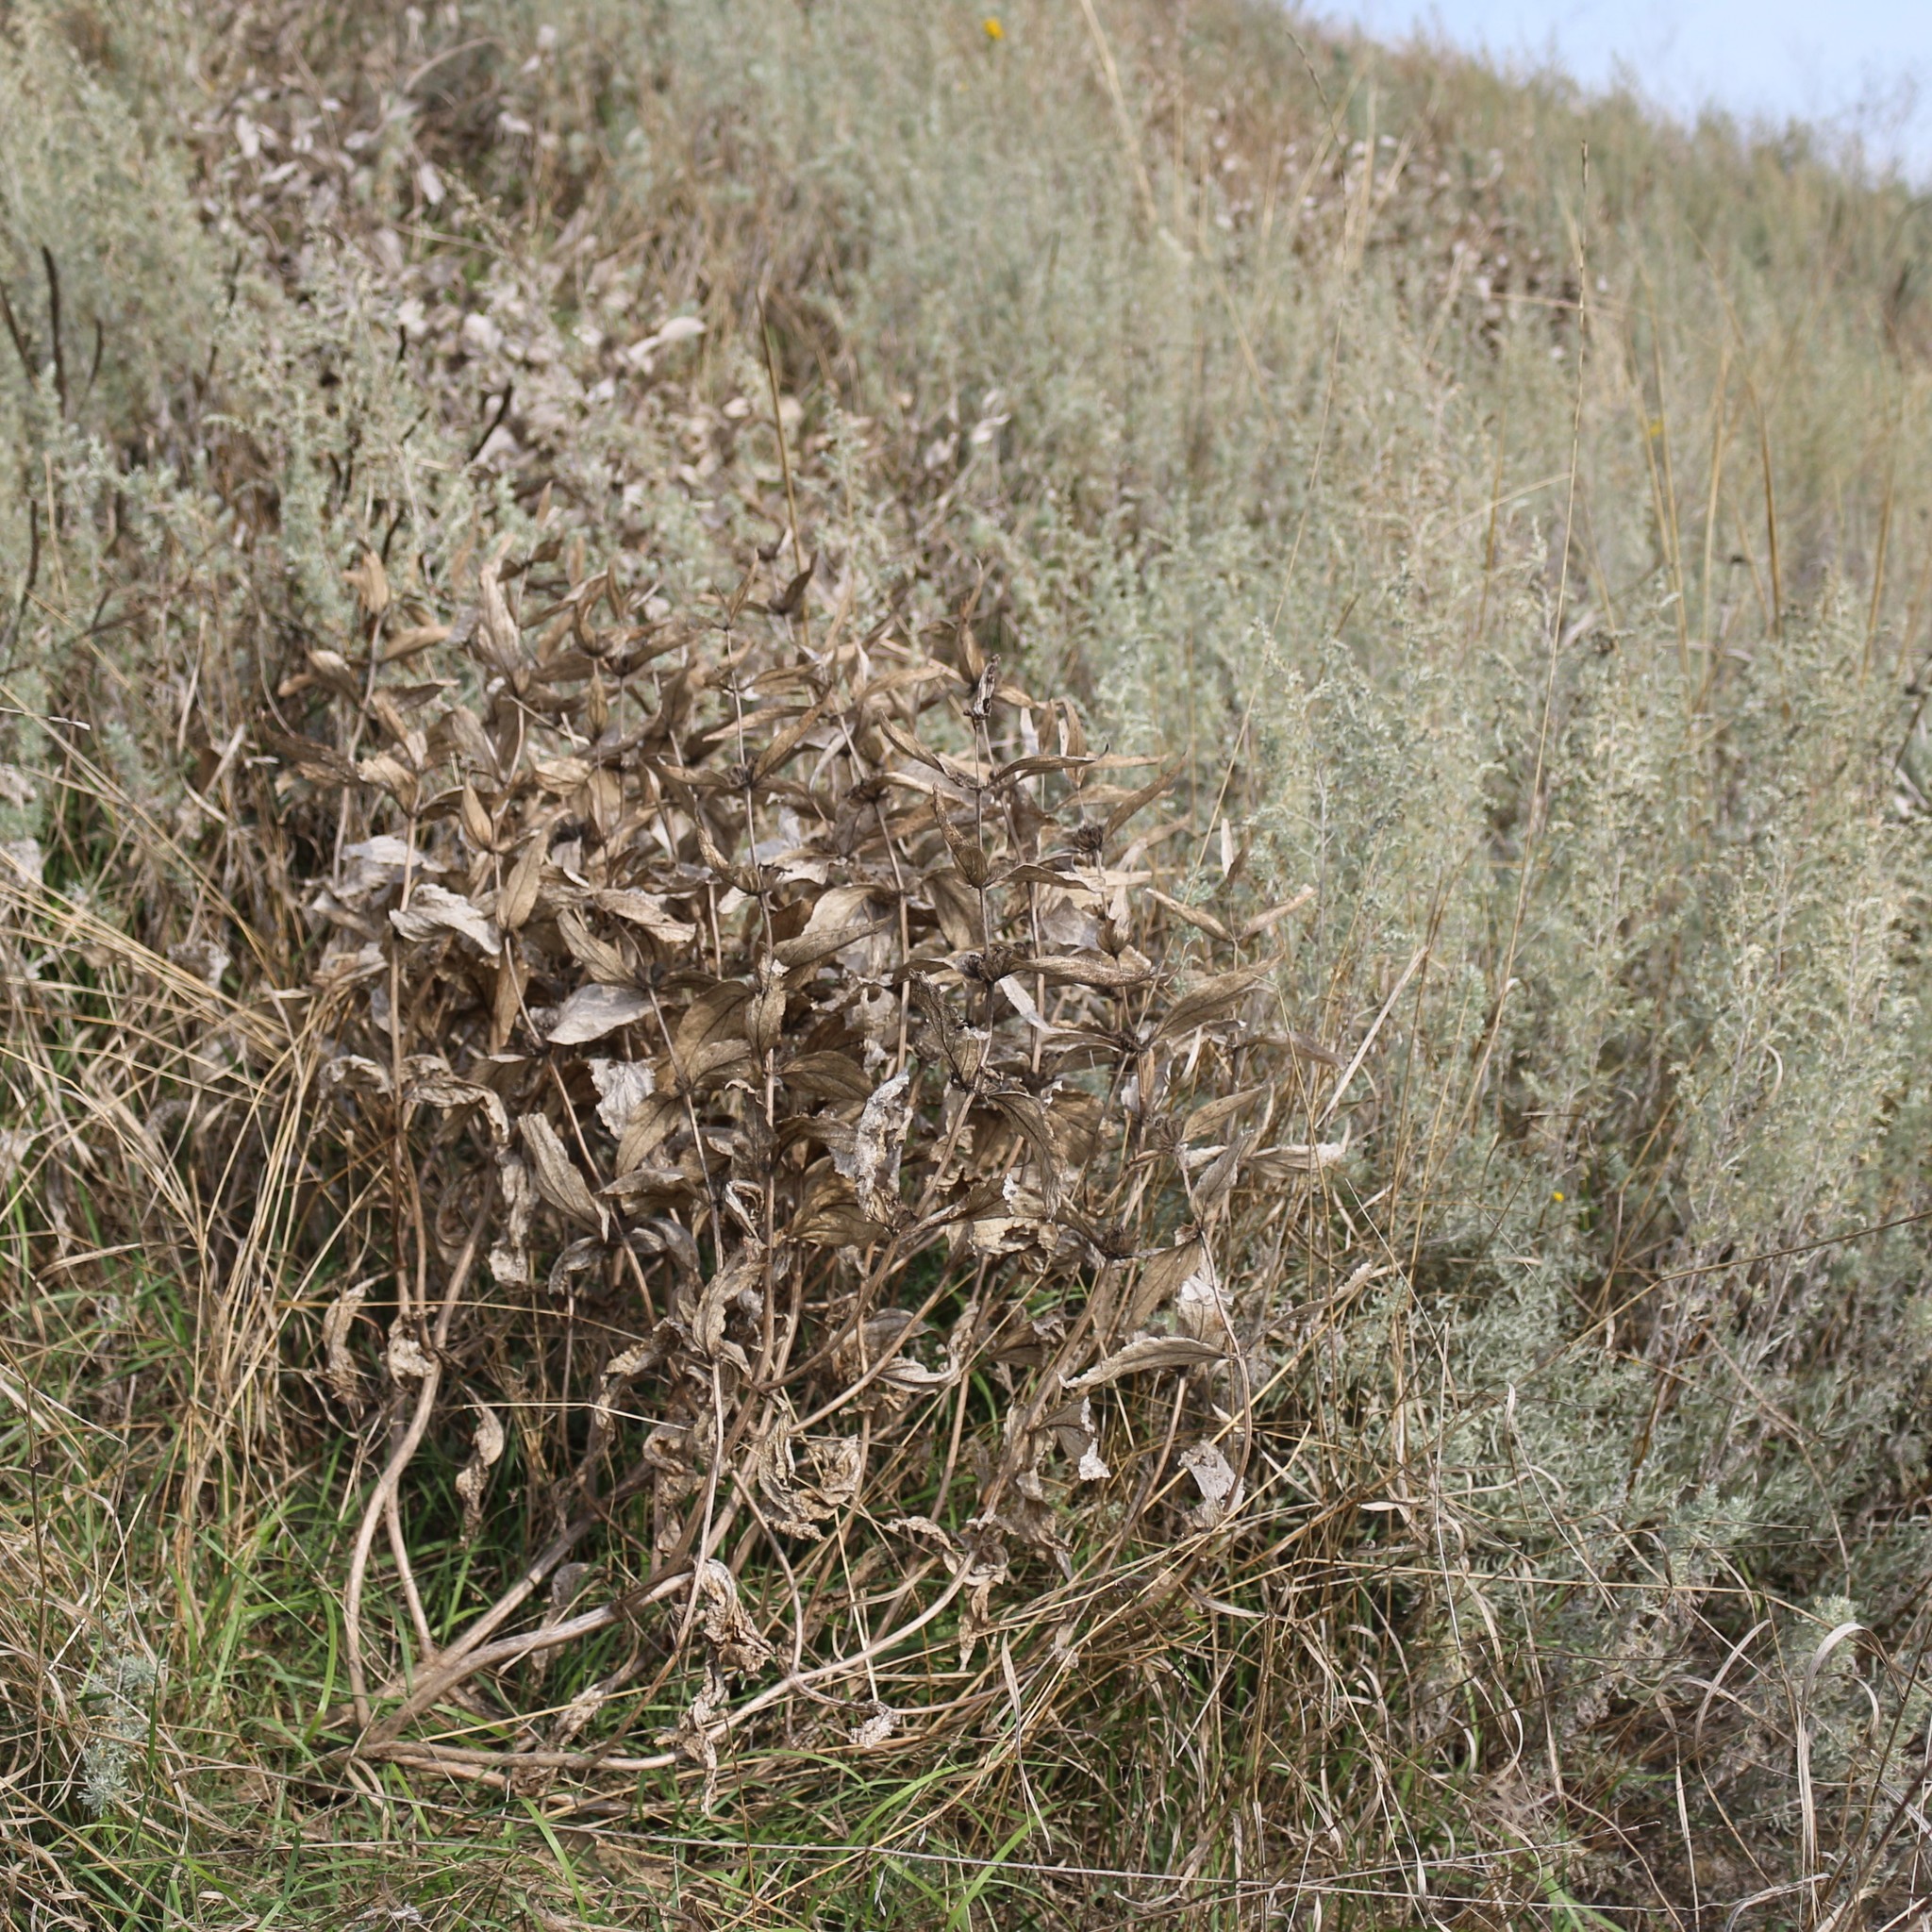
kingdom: Plantae
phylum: Tracheophyta
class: Magnoliopsida
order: Lamiales
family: Lamiaceae
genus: Phlomis
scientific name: Phlomis herba-venti
